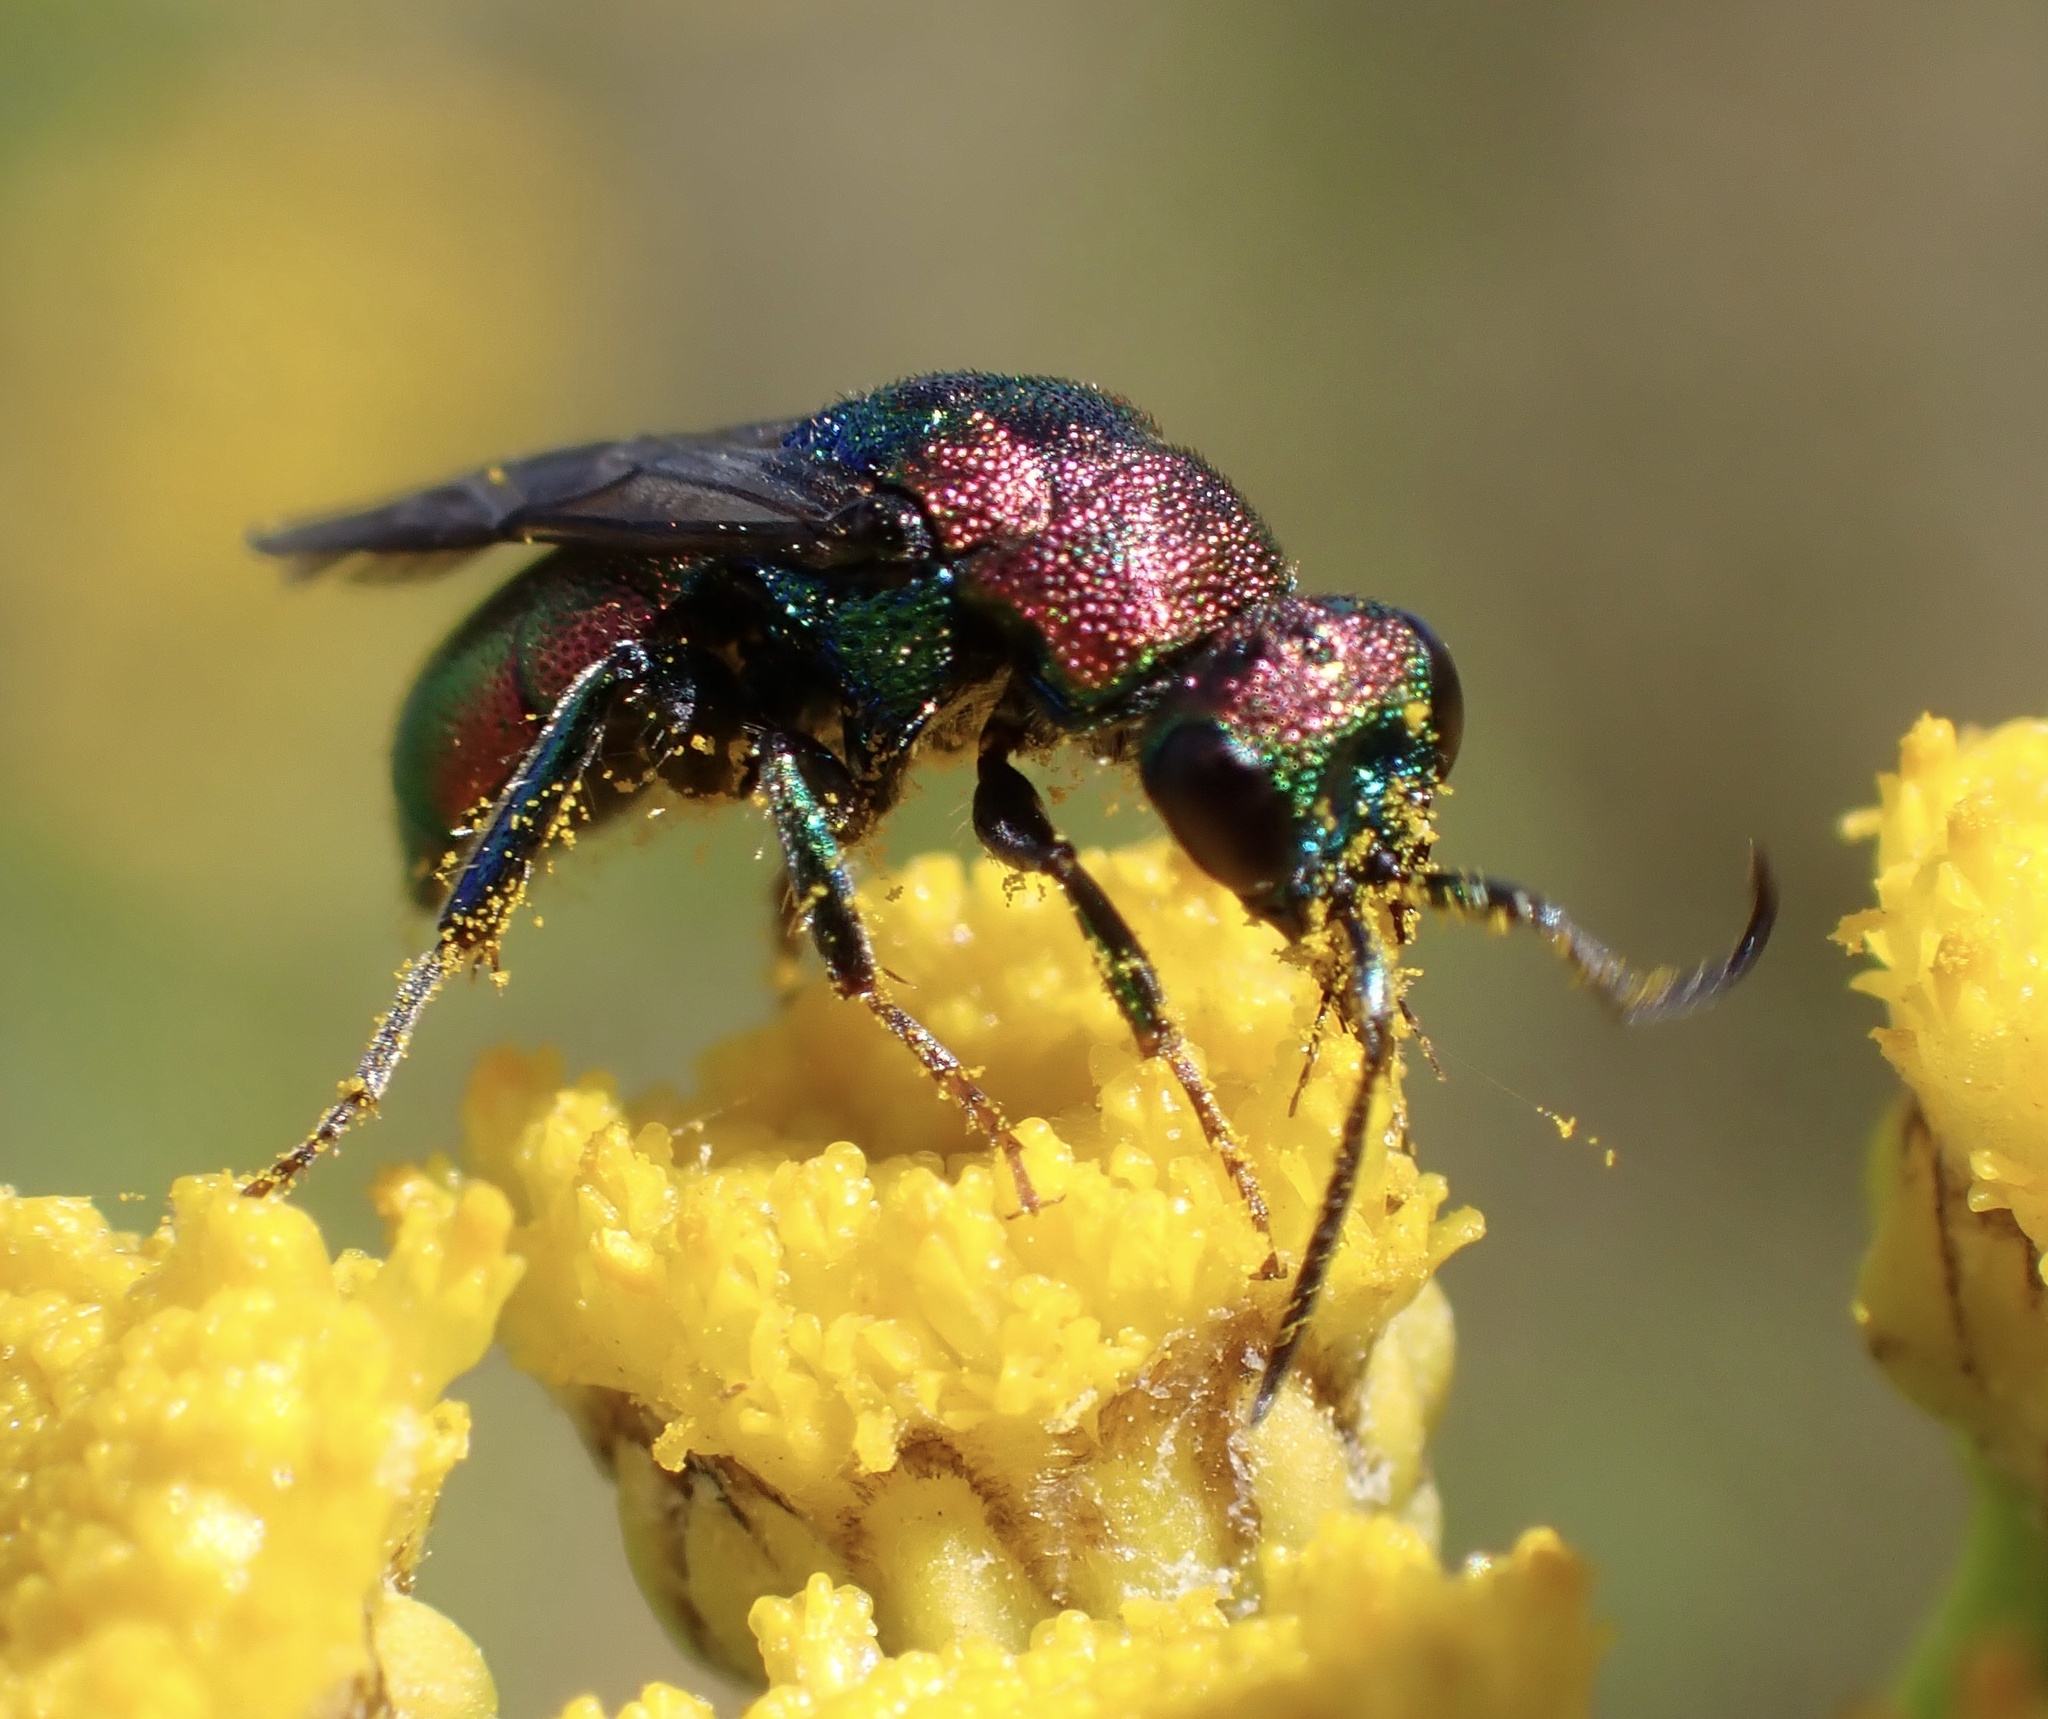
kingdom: Animalia
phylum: Arthropoda
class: Insecta
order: Hymenoptera
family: Chrysididae
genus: Hedychrum
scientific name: Hedychrum rutilans
